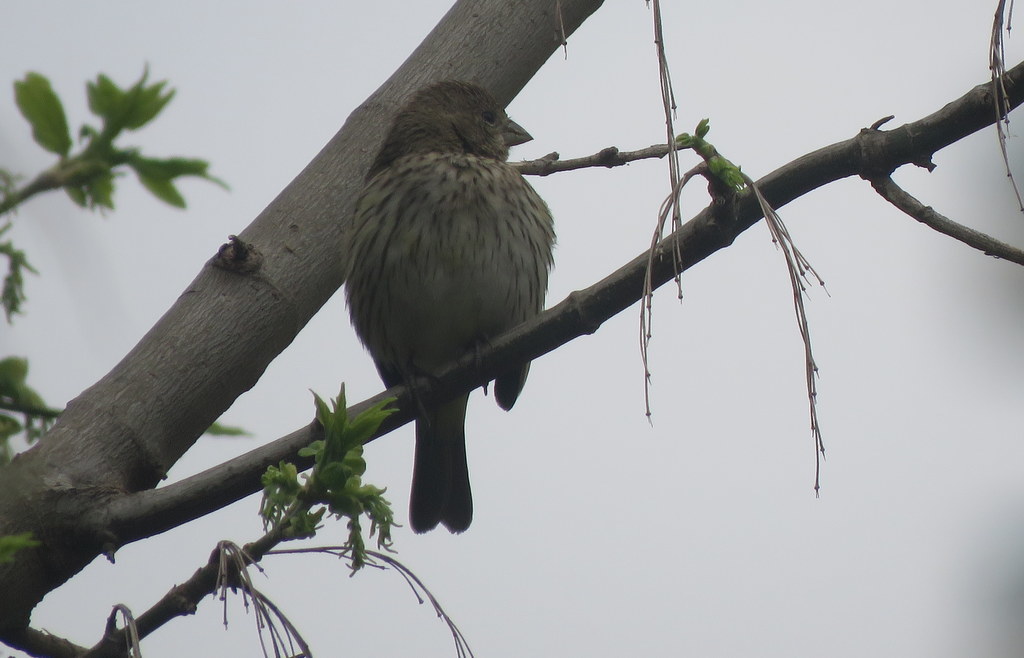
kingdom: Animalia
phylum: Chordata
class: Aves
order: Passeriformes
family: Thraupidae
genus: Sicalis
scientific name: Sicalis flaveola
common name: Saffron finch
